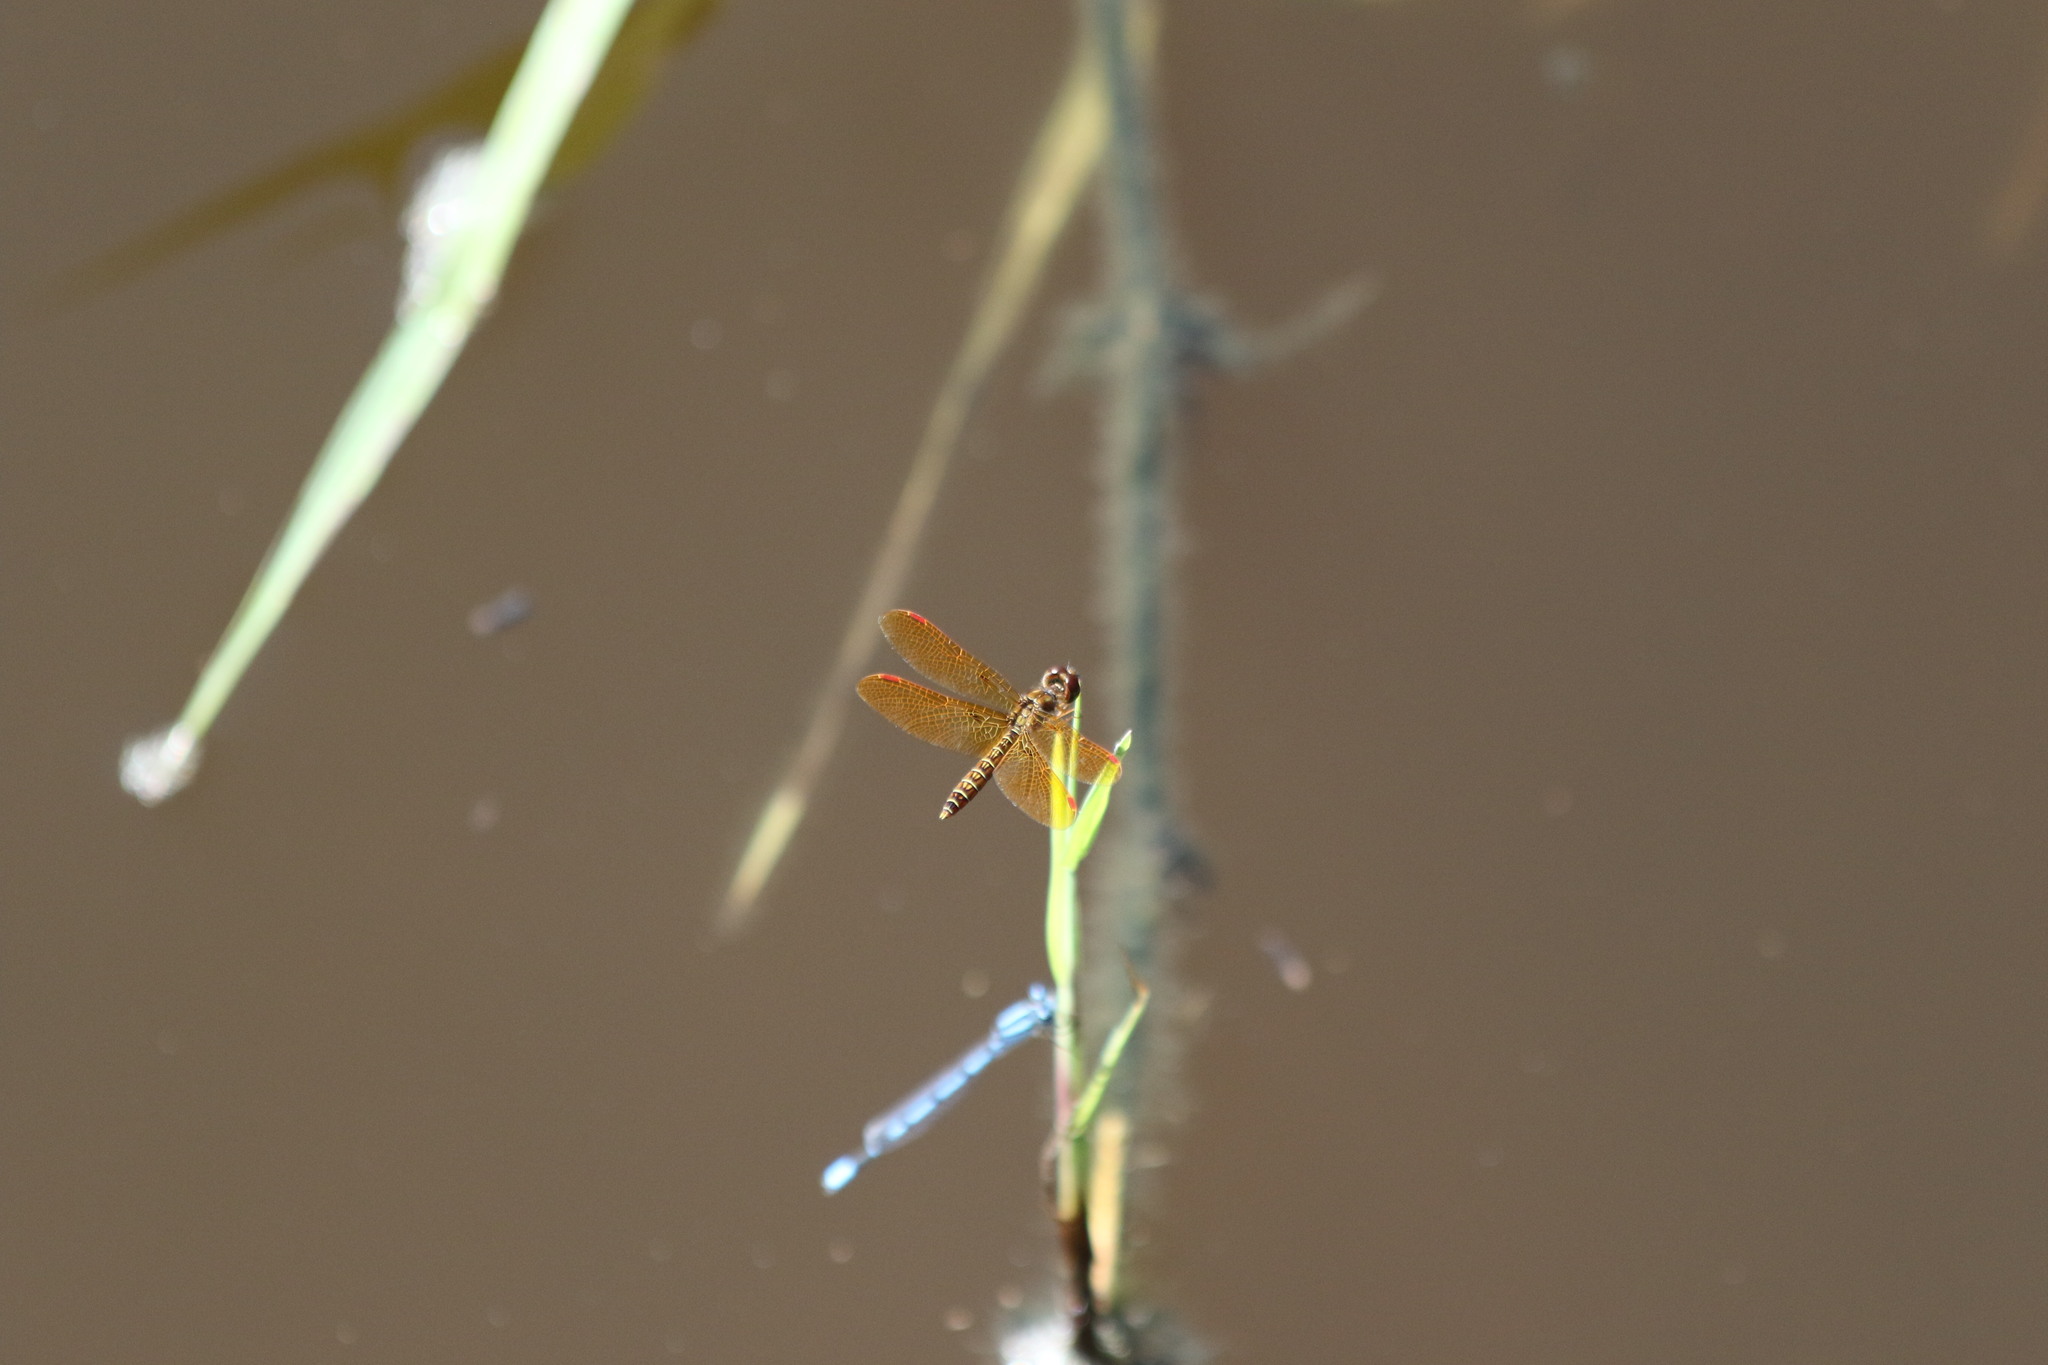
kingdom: Animalia
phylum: Arthropoda
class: Insecta
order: Odonata
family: Libellulidae
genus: Perithemis
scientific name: Perithemis tenera
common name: Eastern amberwing
